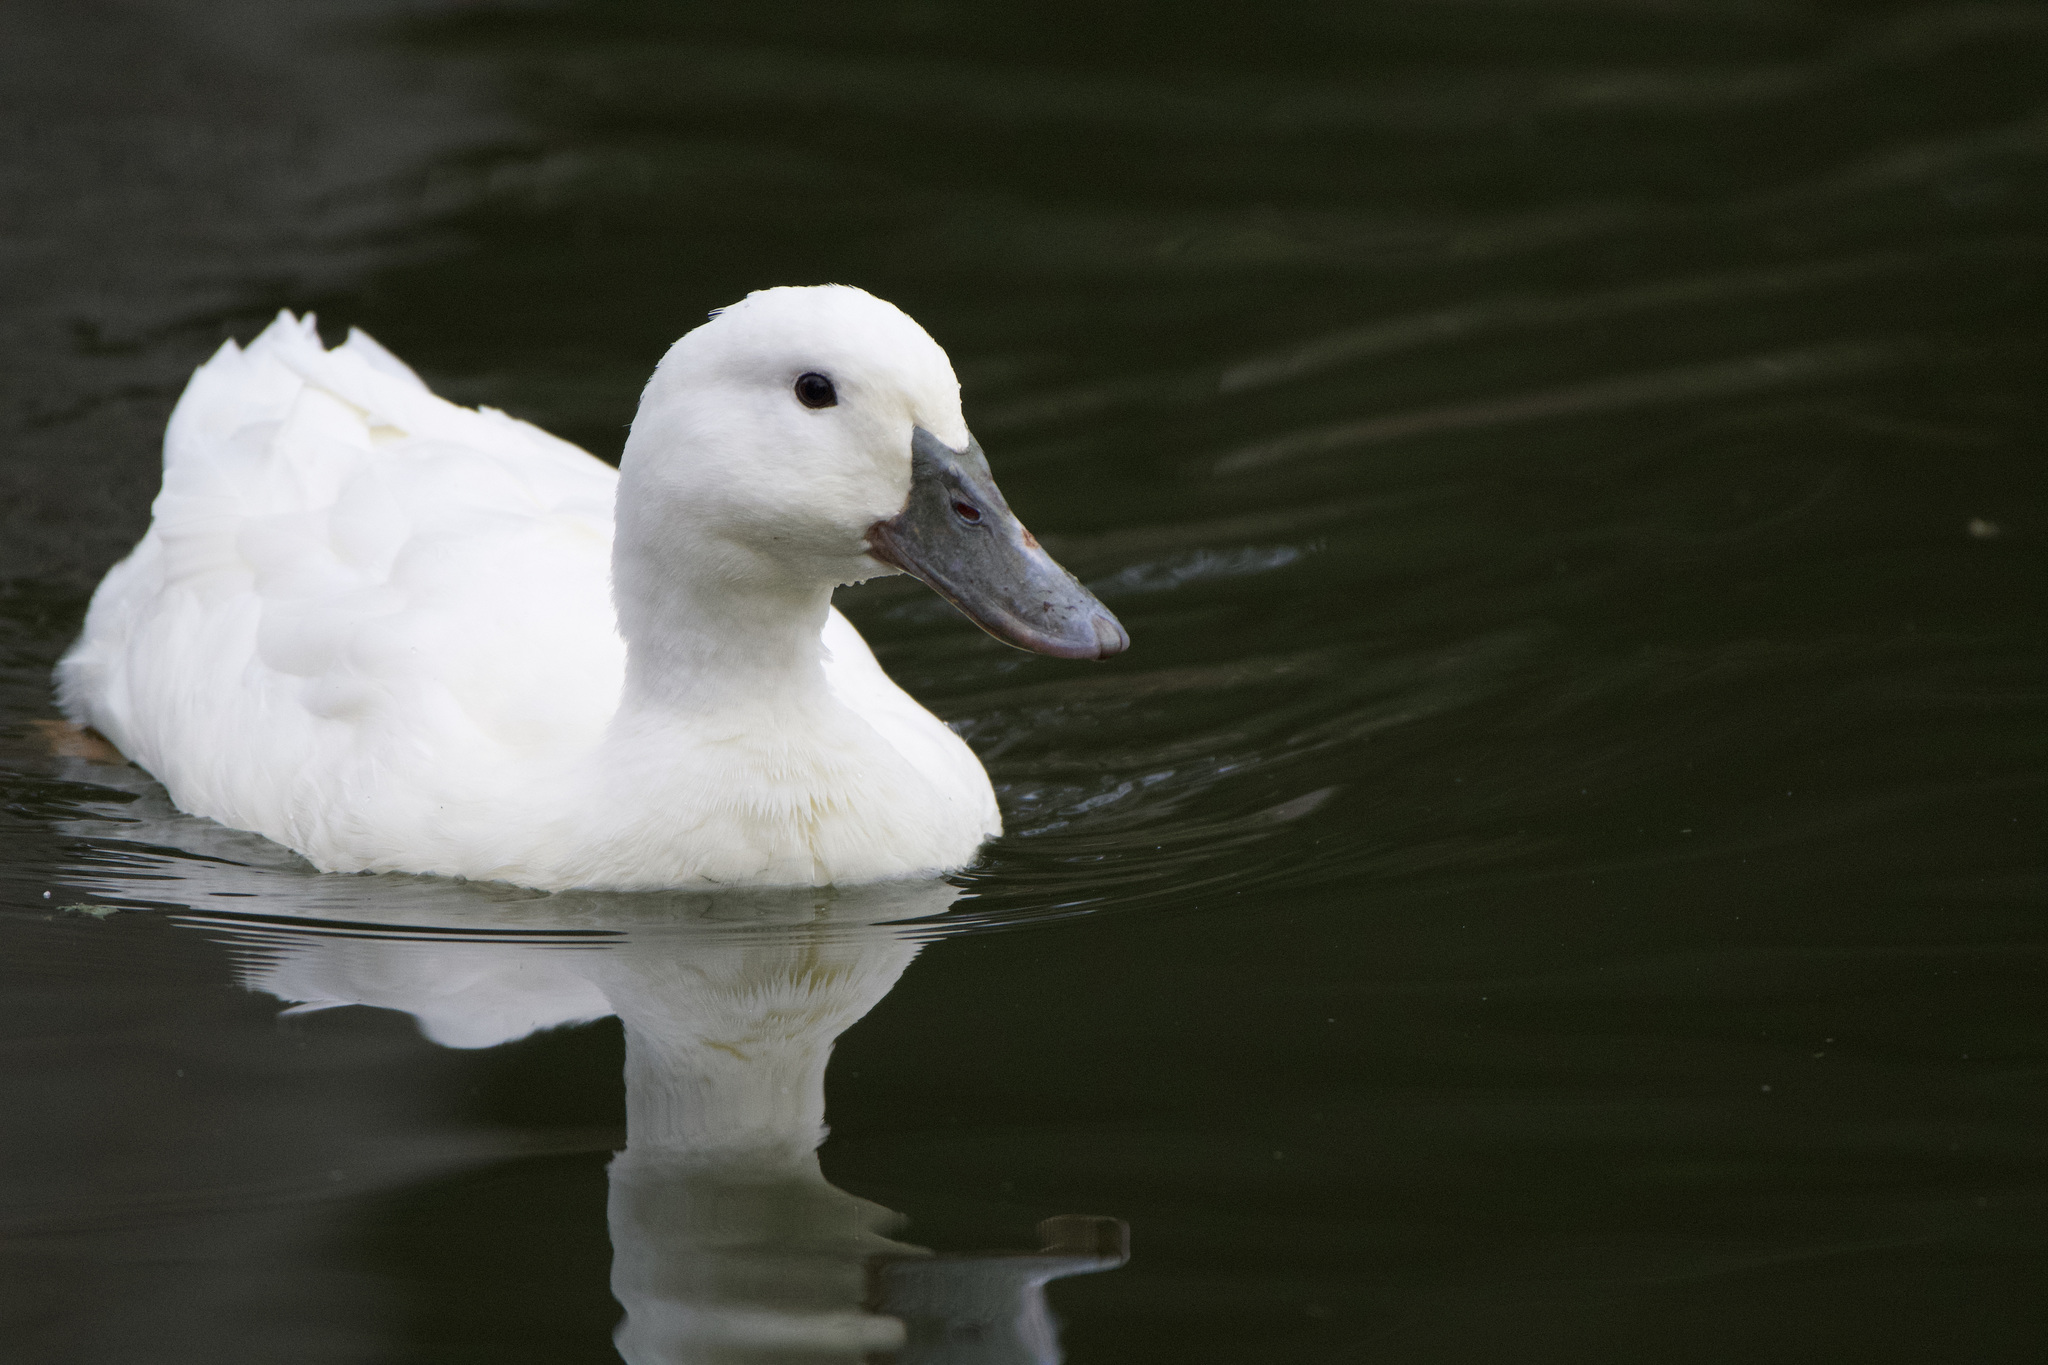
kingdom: Animalia
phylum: Chordata
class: Aves
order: Anseriformes
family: Anatidae
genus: Anas
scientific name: Anas platyrhynchos
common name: Mallard
